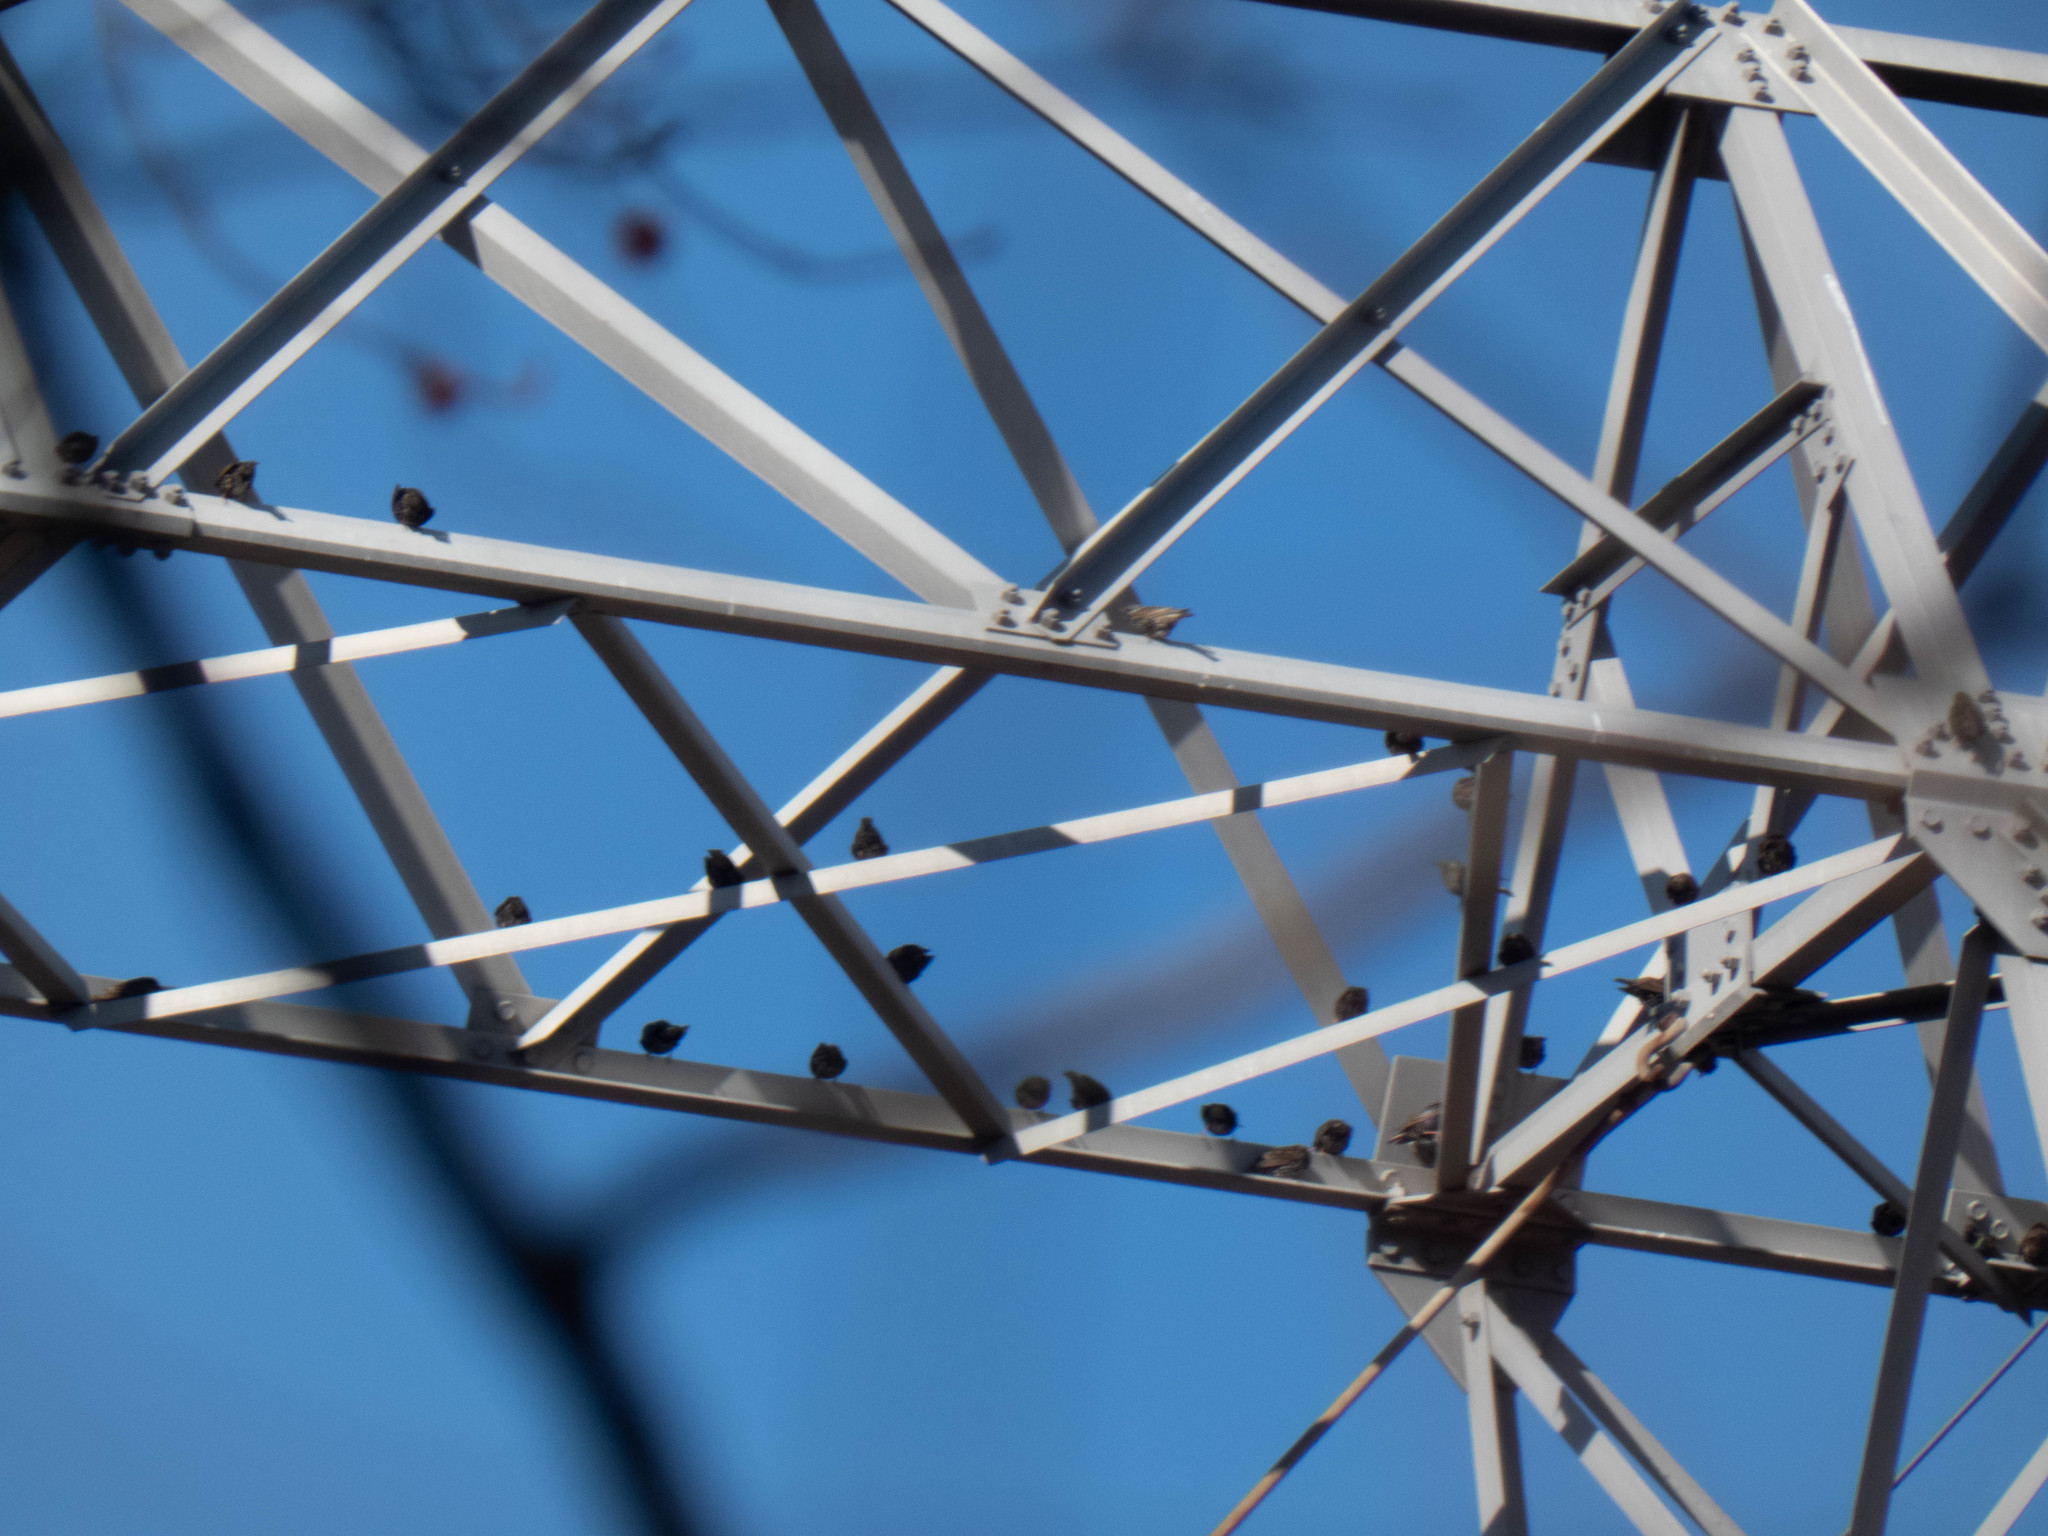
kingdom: Animalia
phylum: Chordata
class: Aves
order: Passeriformes
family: Sturnidae
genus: Sturnus
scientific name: Sturnus vulgaris
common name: Common starling
